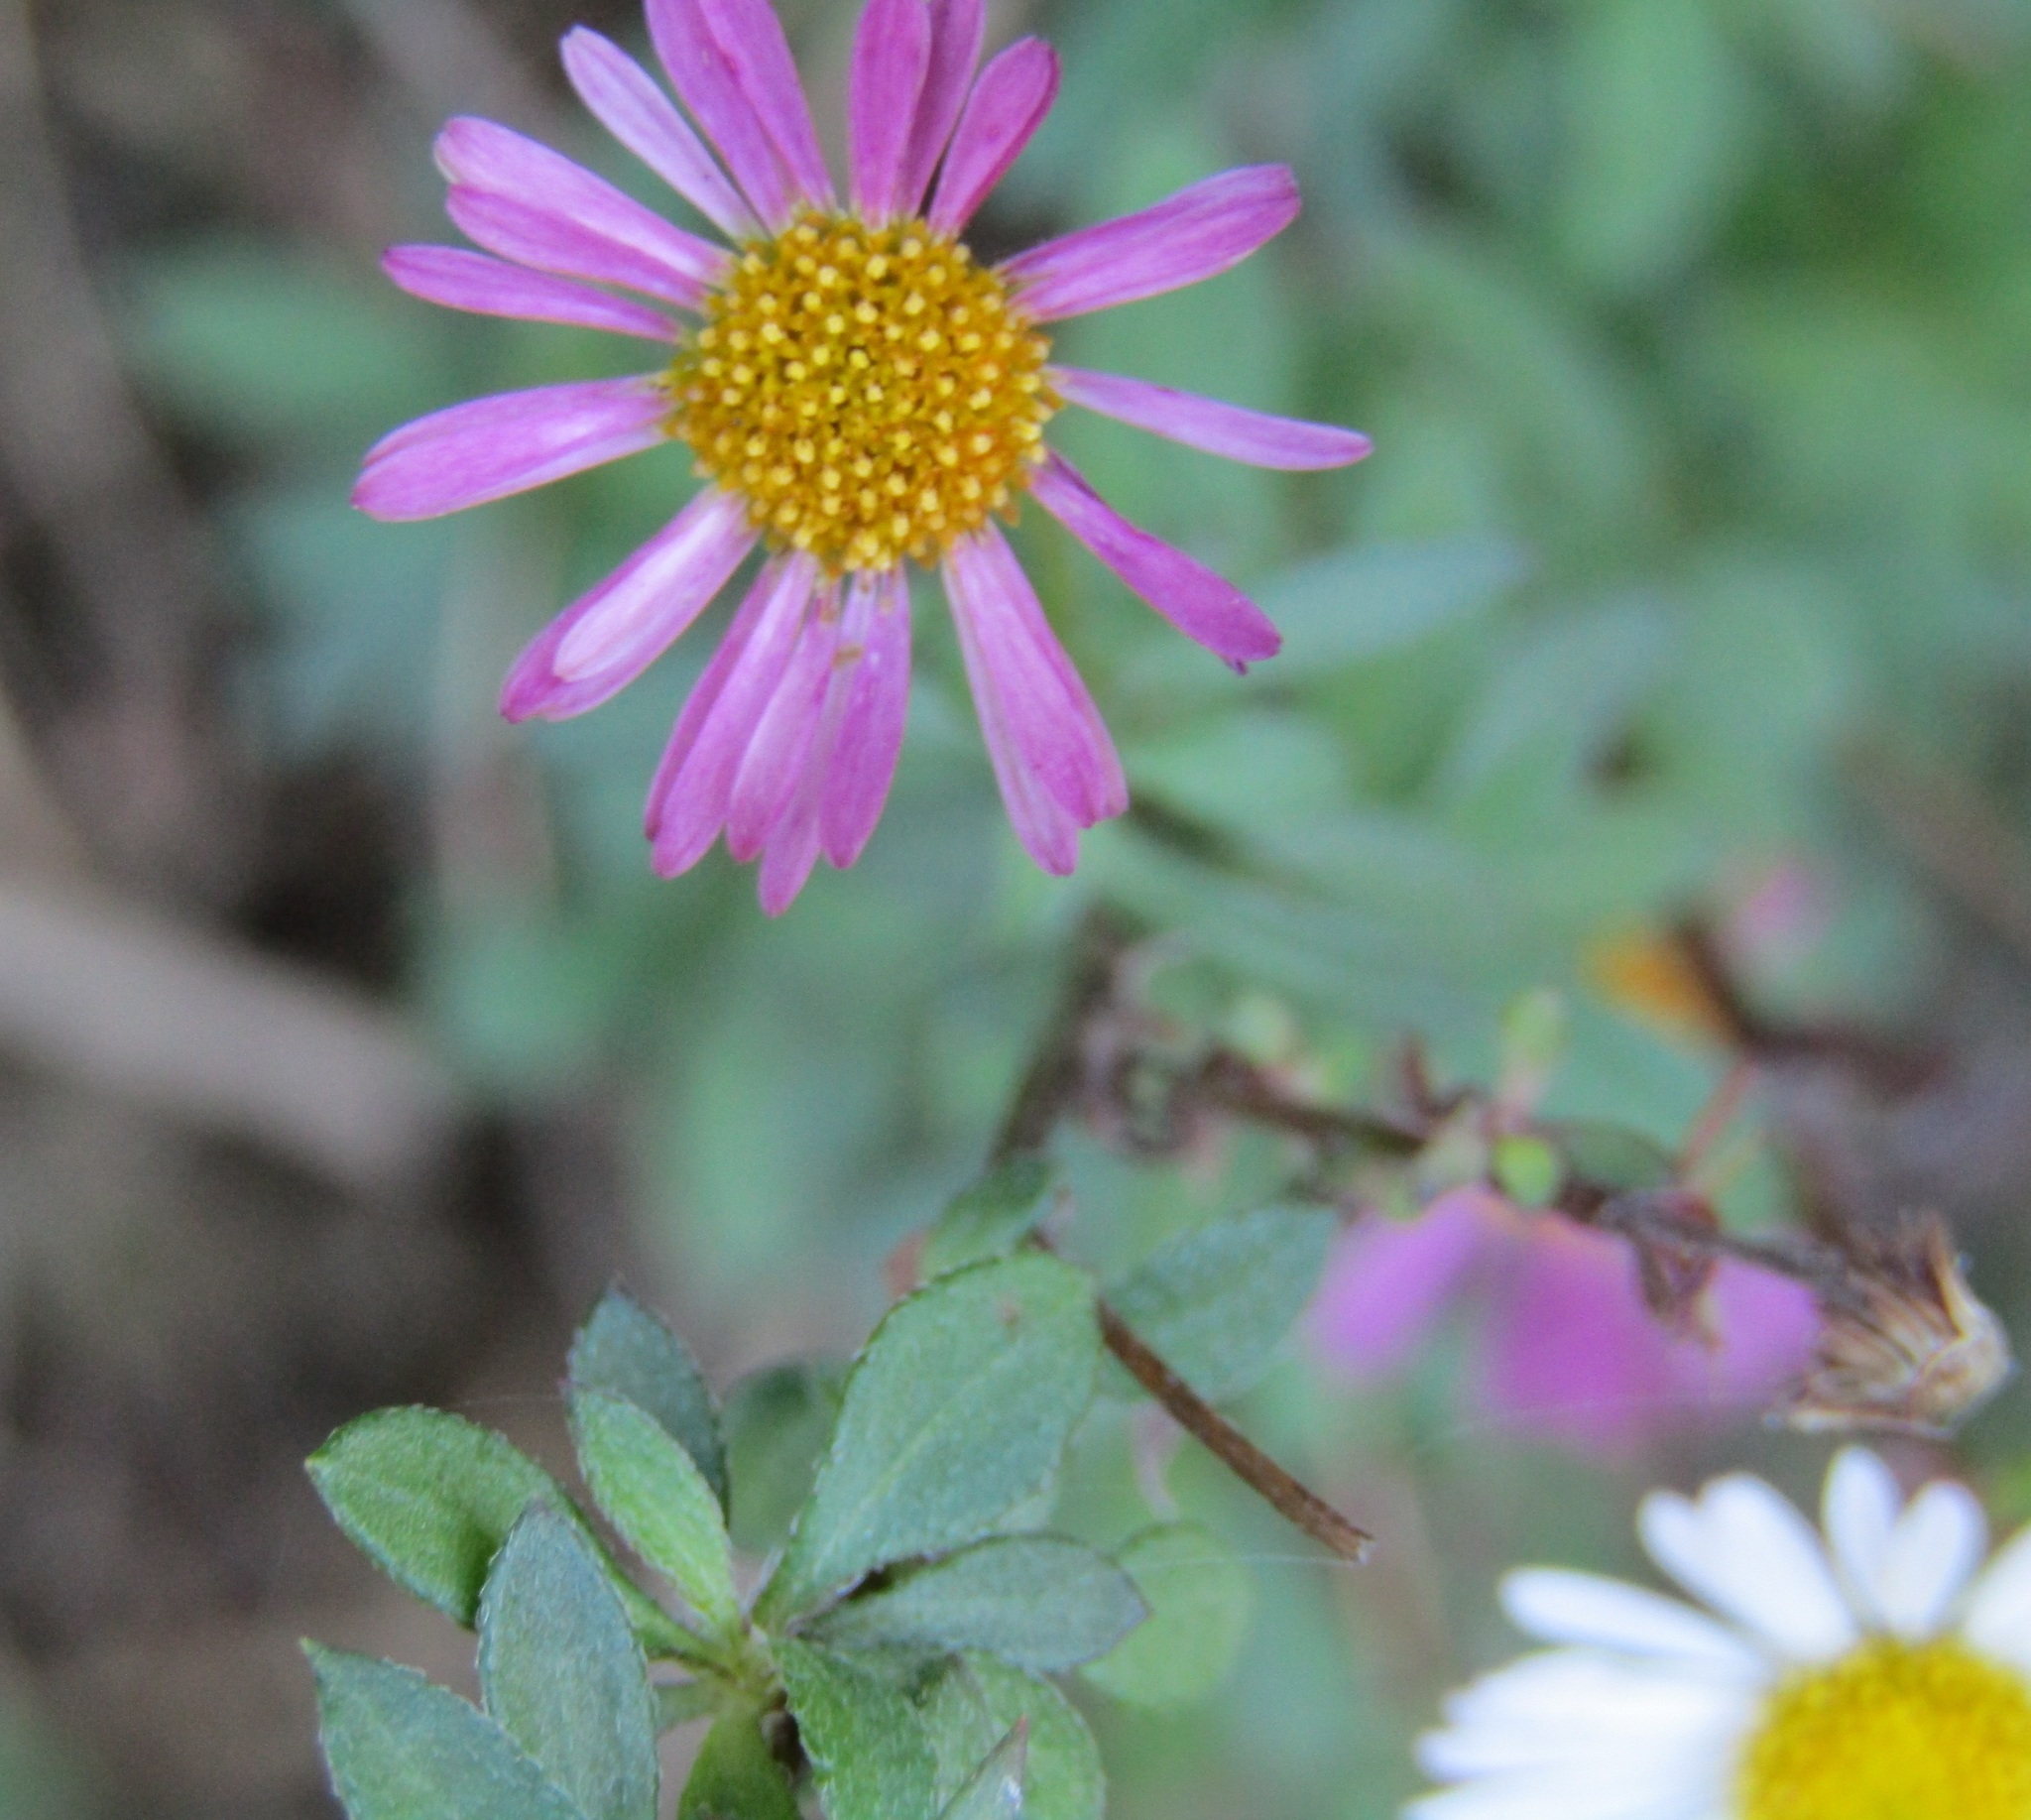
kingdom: Plantae
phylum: Tracheophyta
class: Magnoliopsida
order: Asterales
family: Asteraceae
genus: Erigeron
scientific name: Erigeron karvinskianus
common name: Mexican fleabane
